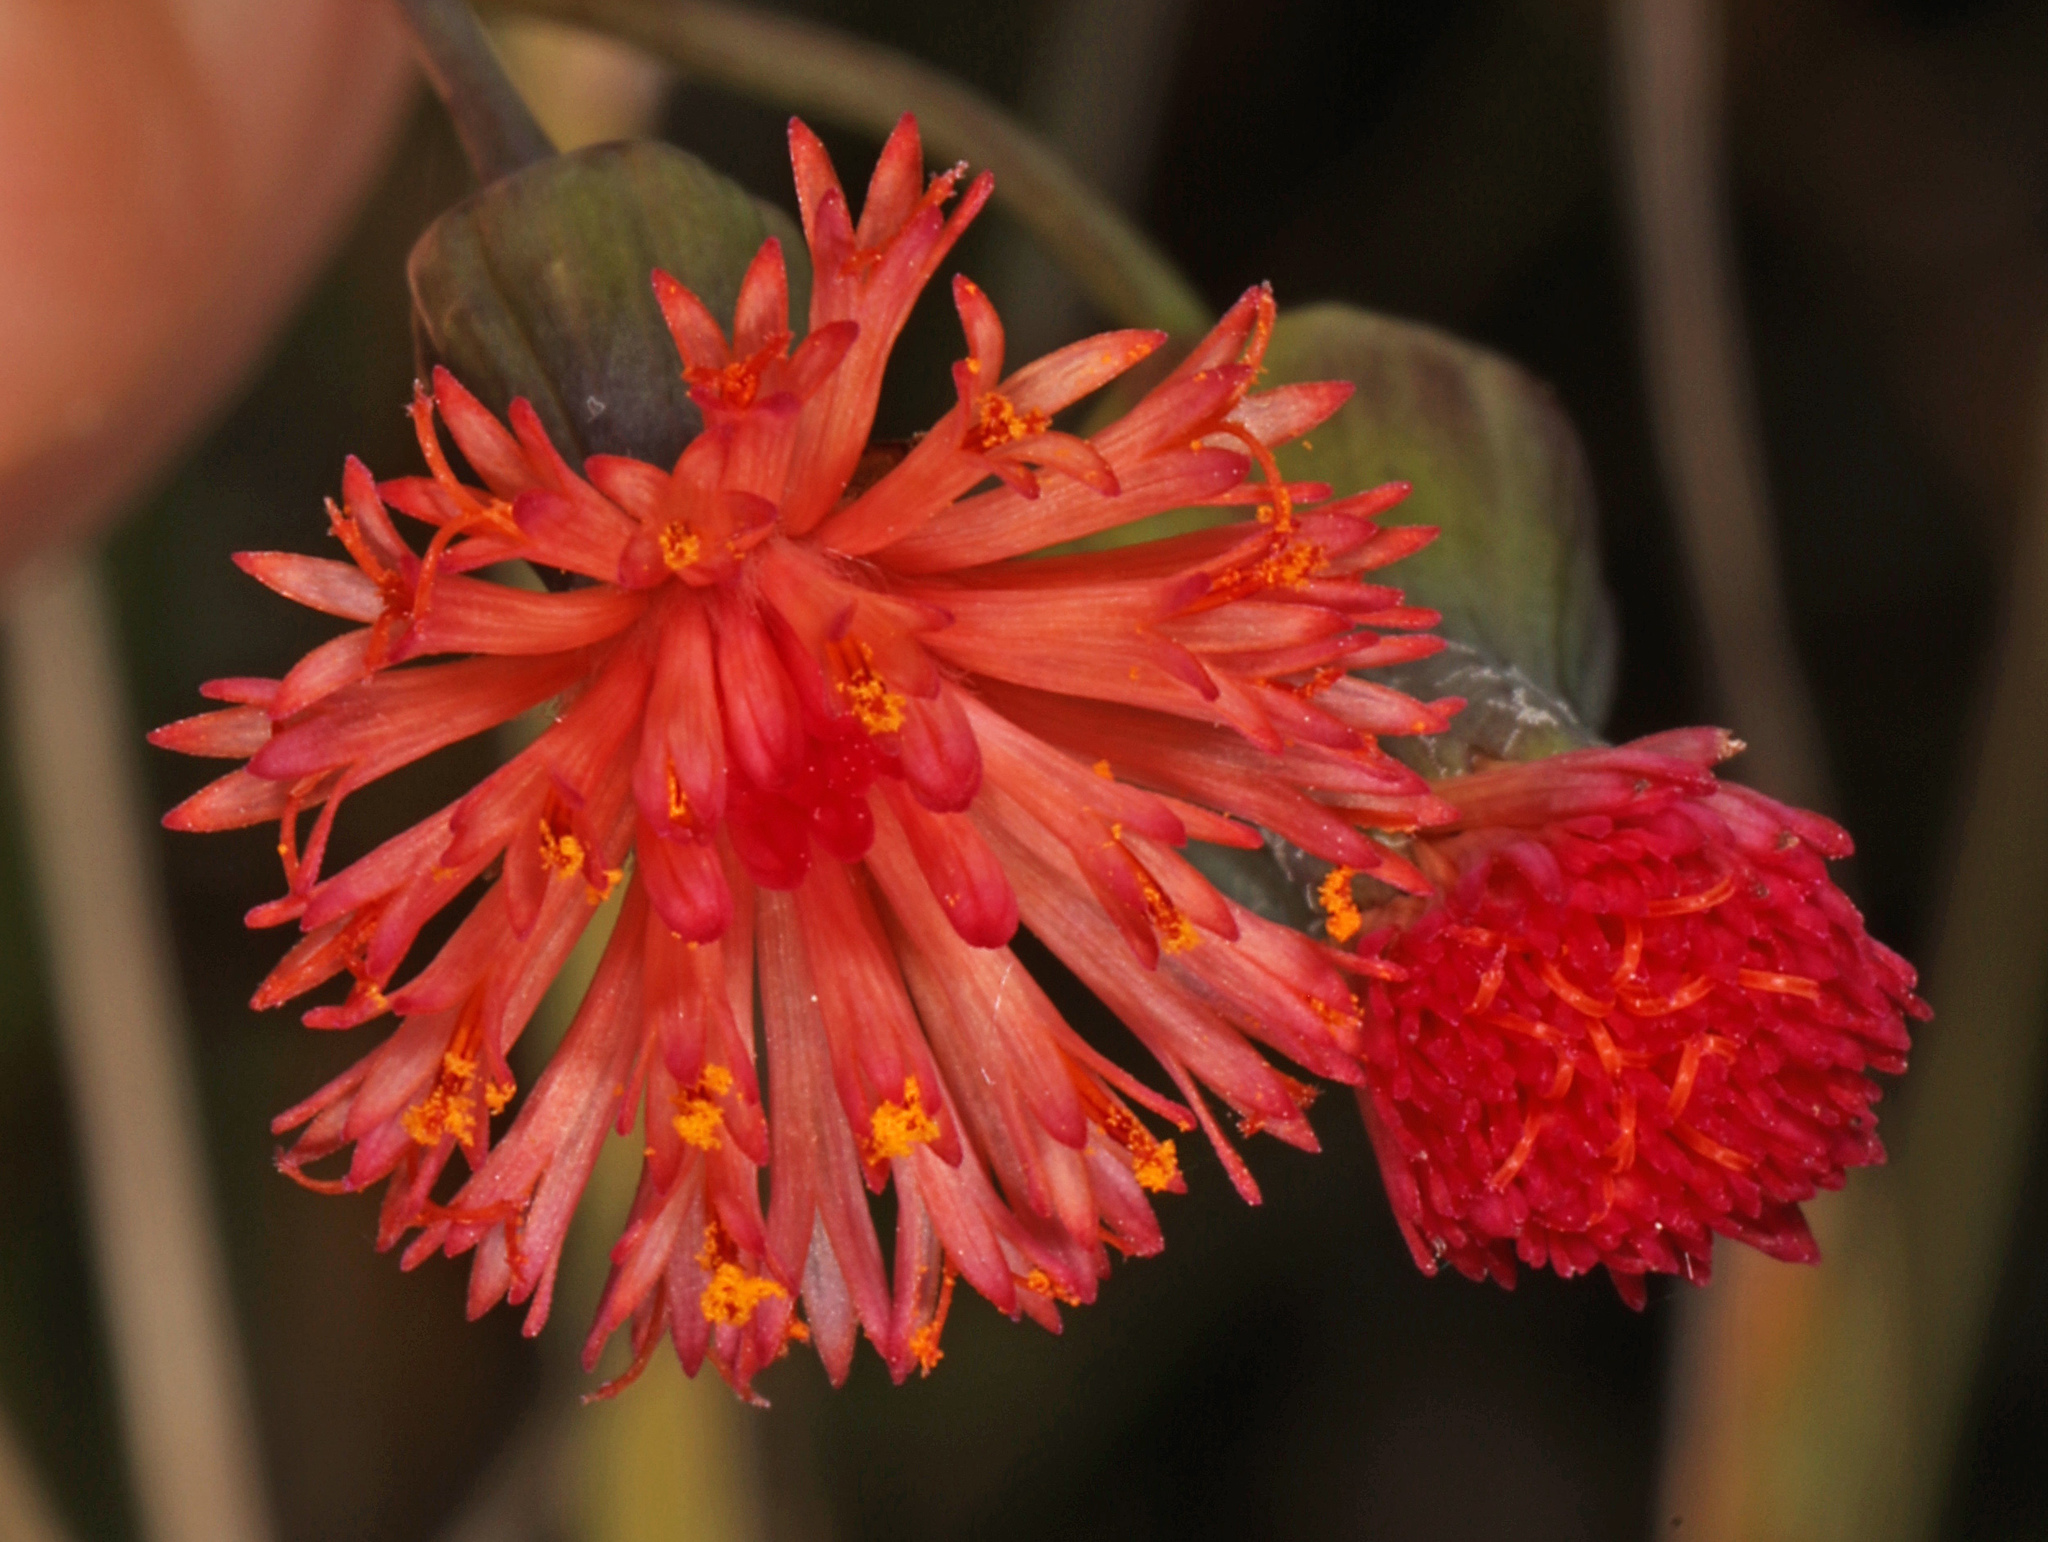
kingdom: Plantae
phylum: Tracheophyta
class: Magnoliopsida
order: Asterales
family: Asteraceae
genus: Emilia
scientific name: Emilia fosbergii
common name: Florida tasselflower
